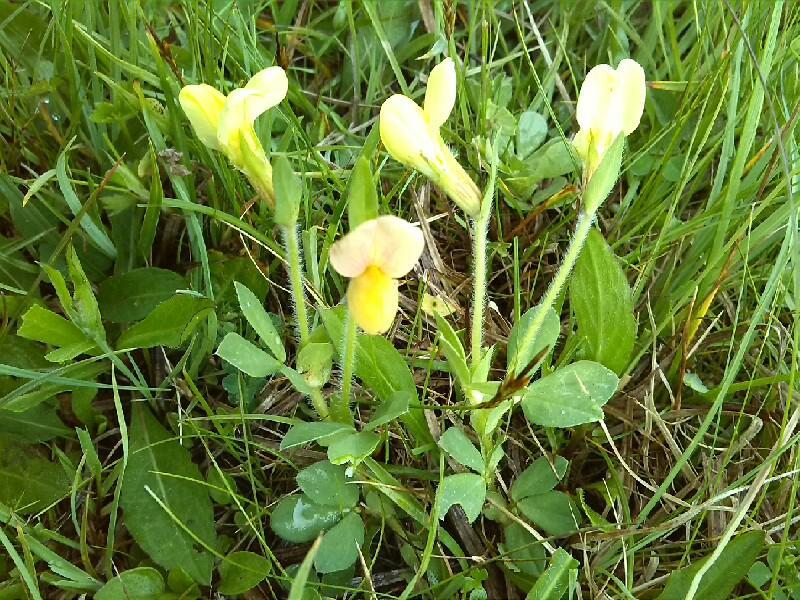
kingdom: Plantae
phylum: Tracheophyta
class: Magnoliopsida
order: Fabales
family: Fabaceae
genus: Lotus
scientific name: Lotus maritimus
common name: Dragon's-teeth
